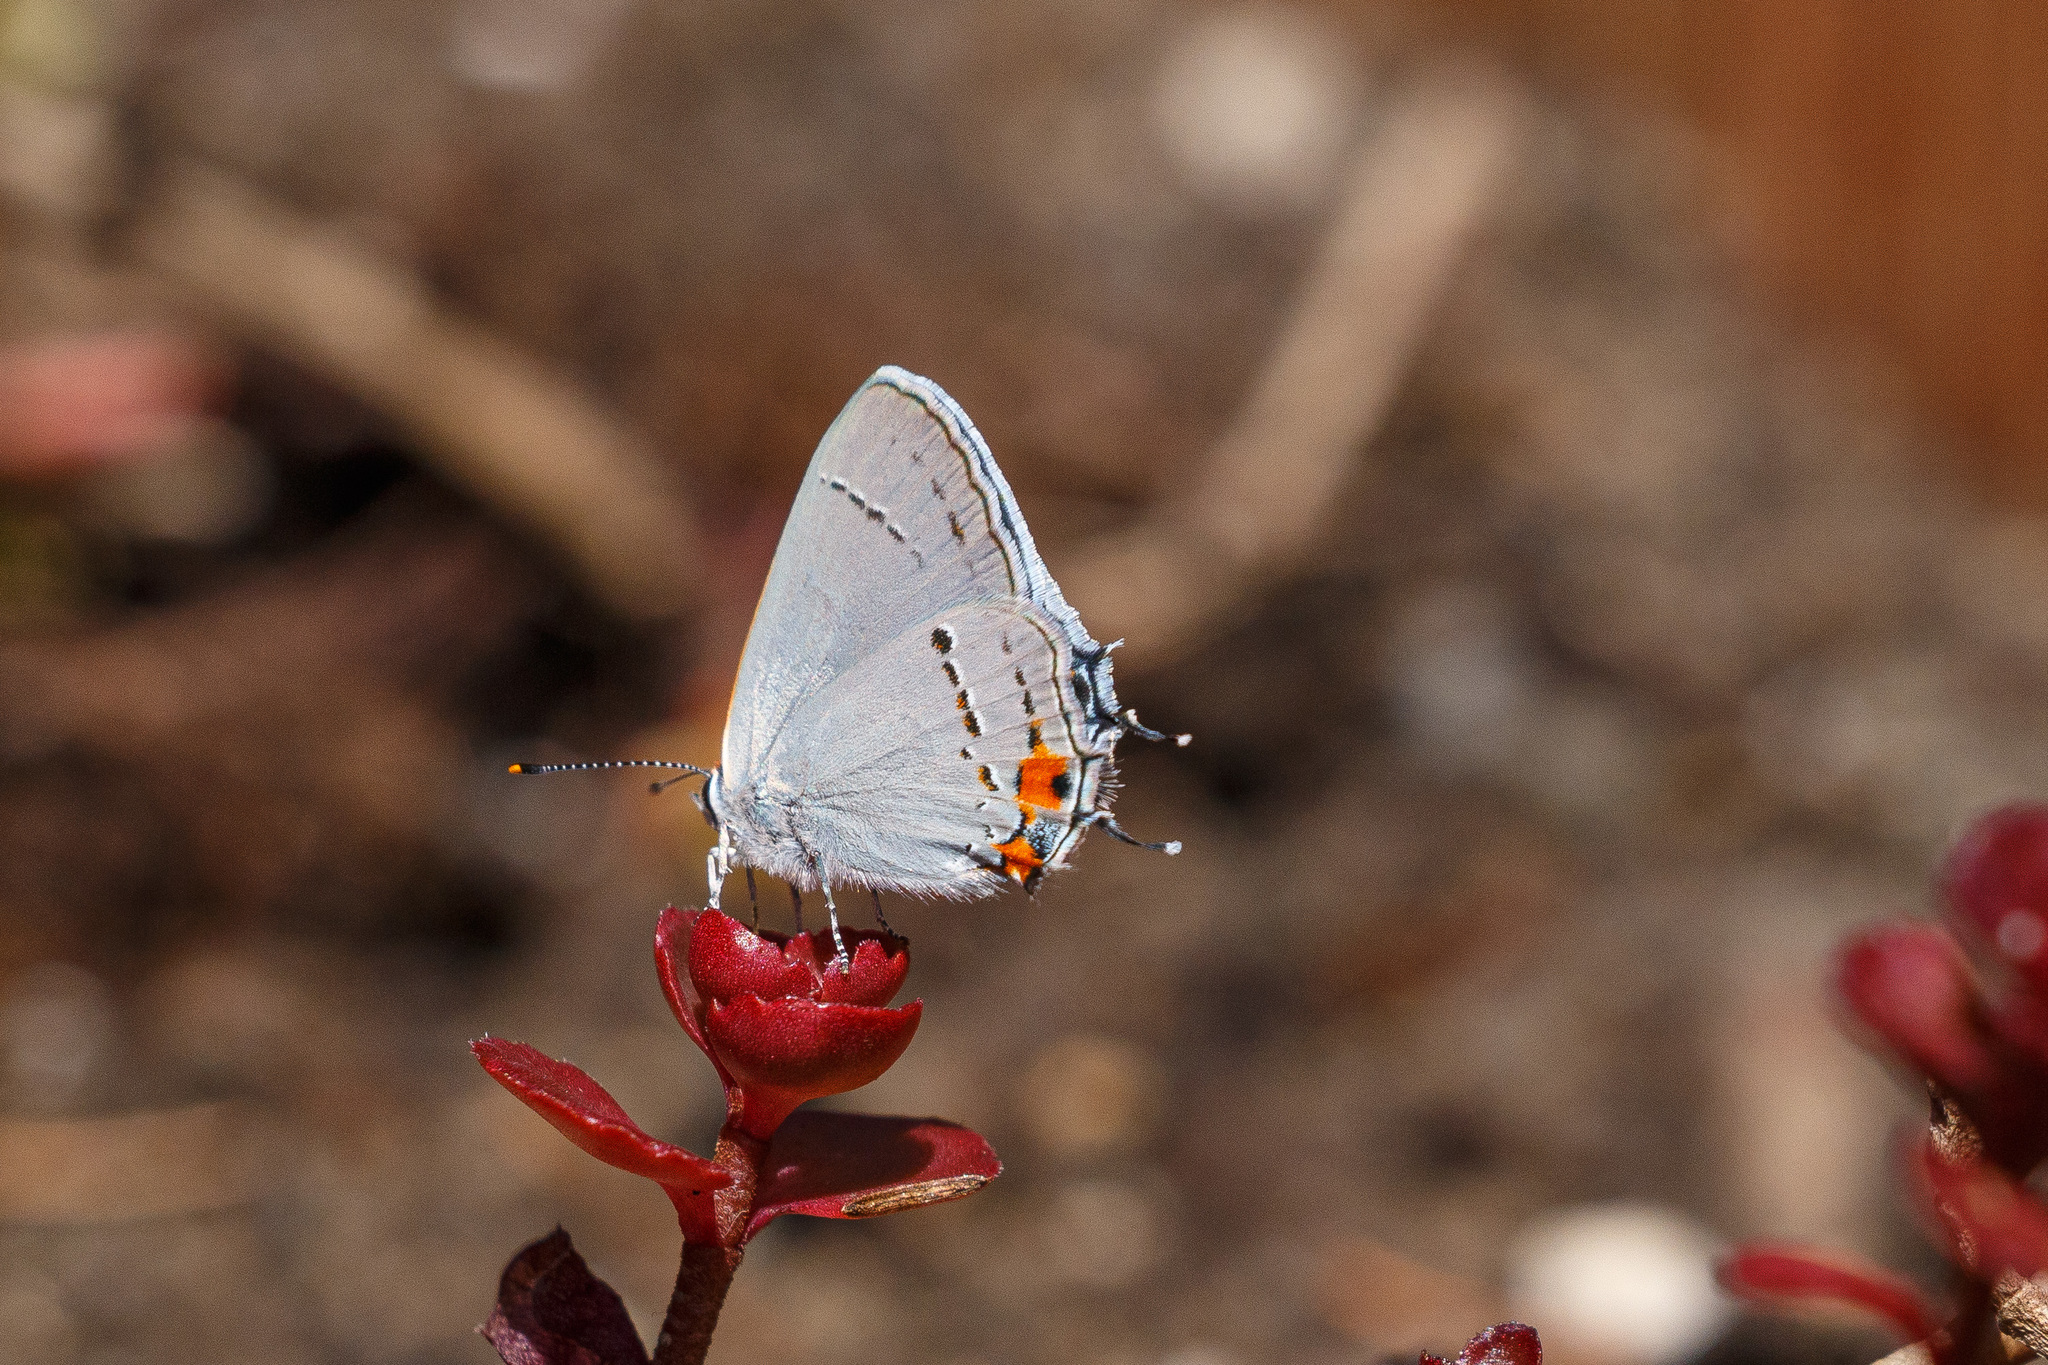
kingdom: Animalia
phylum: Arthropoda
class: Insecta
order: Lepidoptera
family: Lycaenidae
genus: Strymon
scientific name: Strymon melinus
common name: Gray hairstreak
